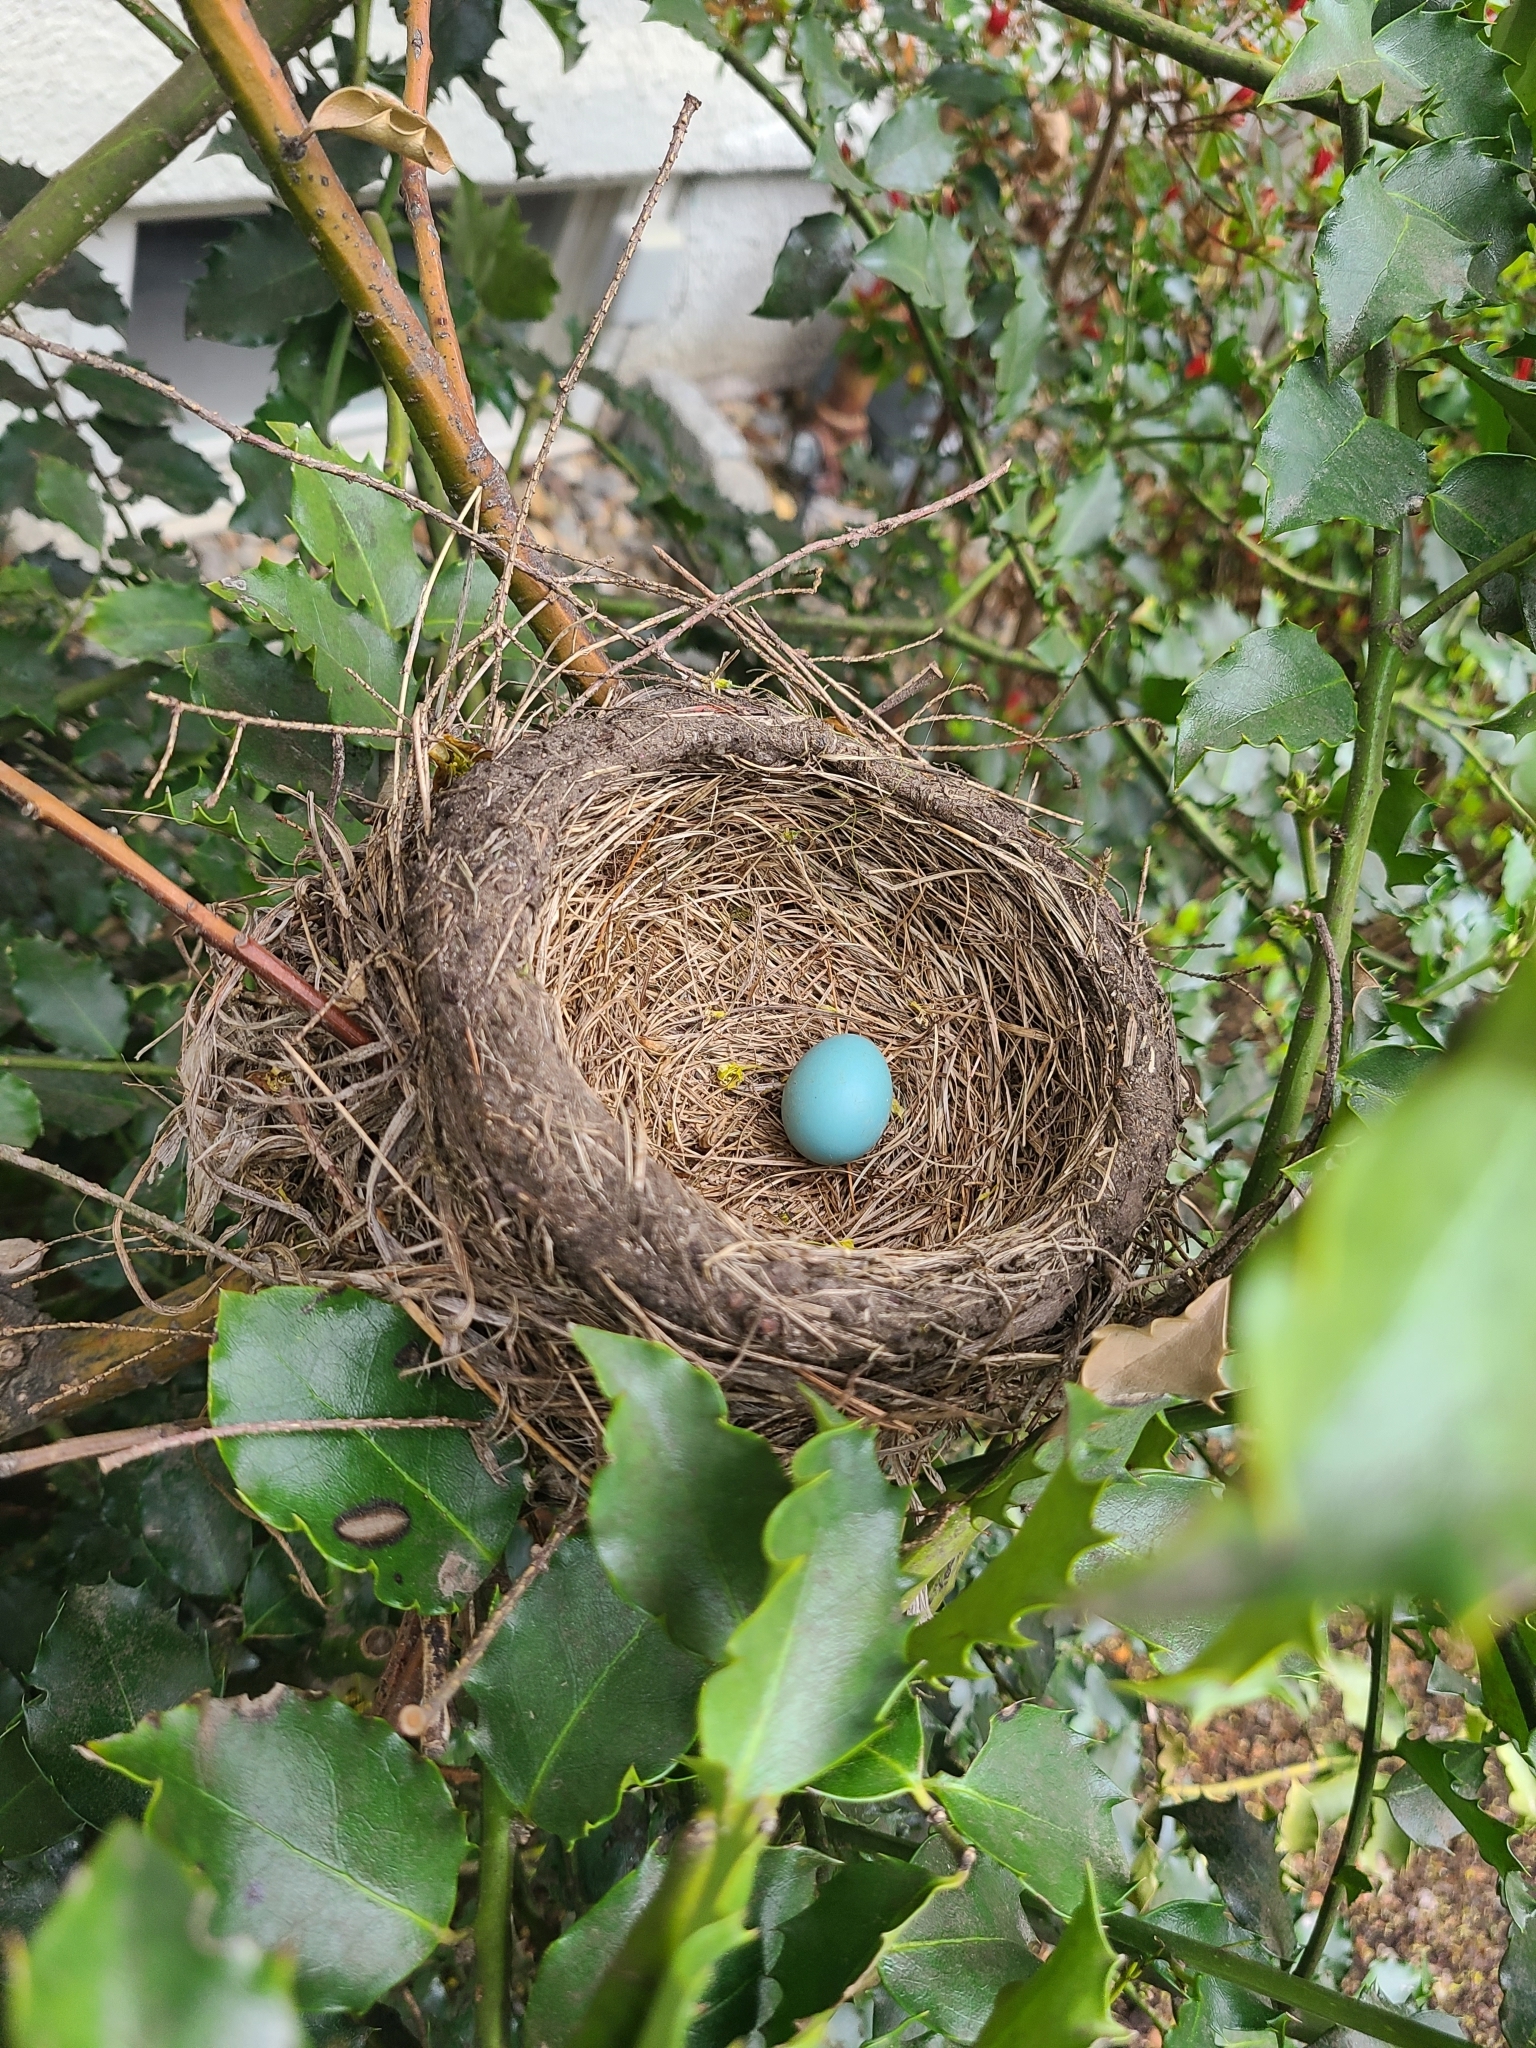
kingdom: Animalia
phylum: Chordata
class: Aves
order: Passeriformes
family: Turdidae
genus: Turdus
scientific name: Turdus migratorius
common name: American robin
